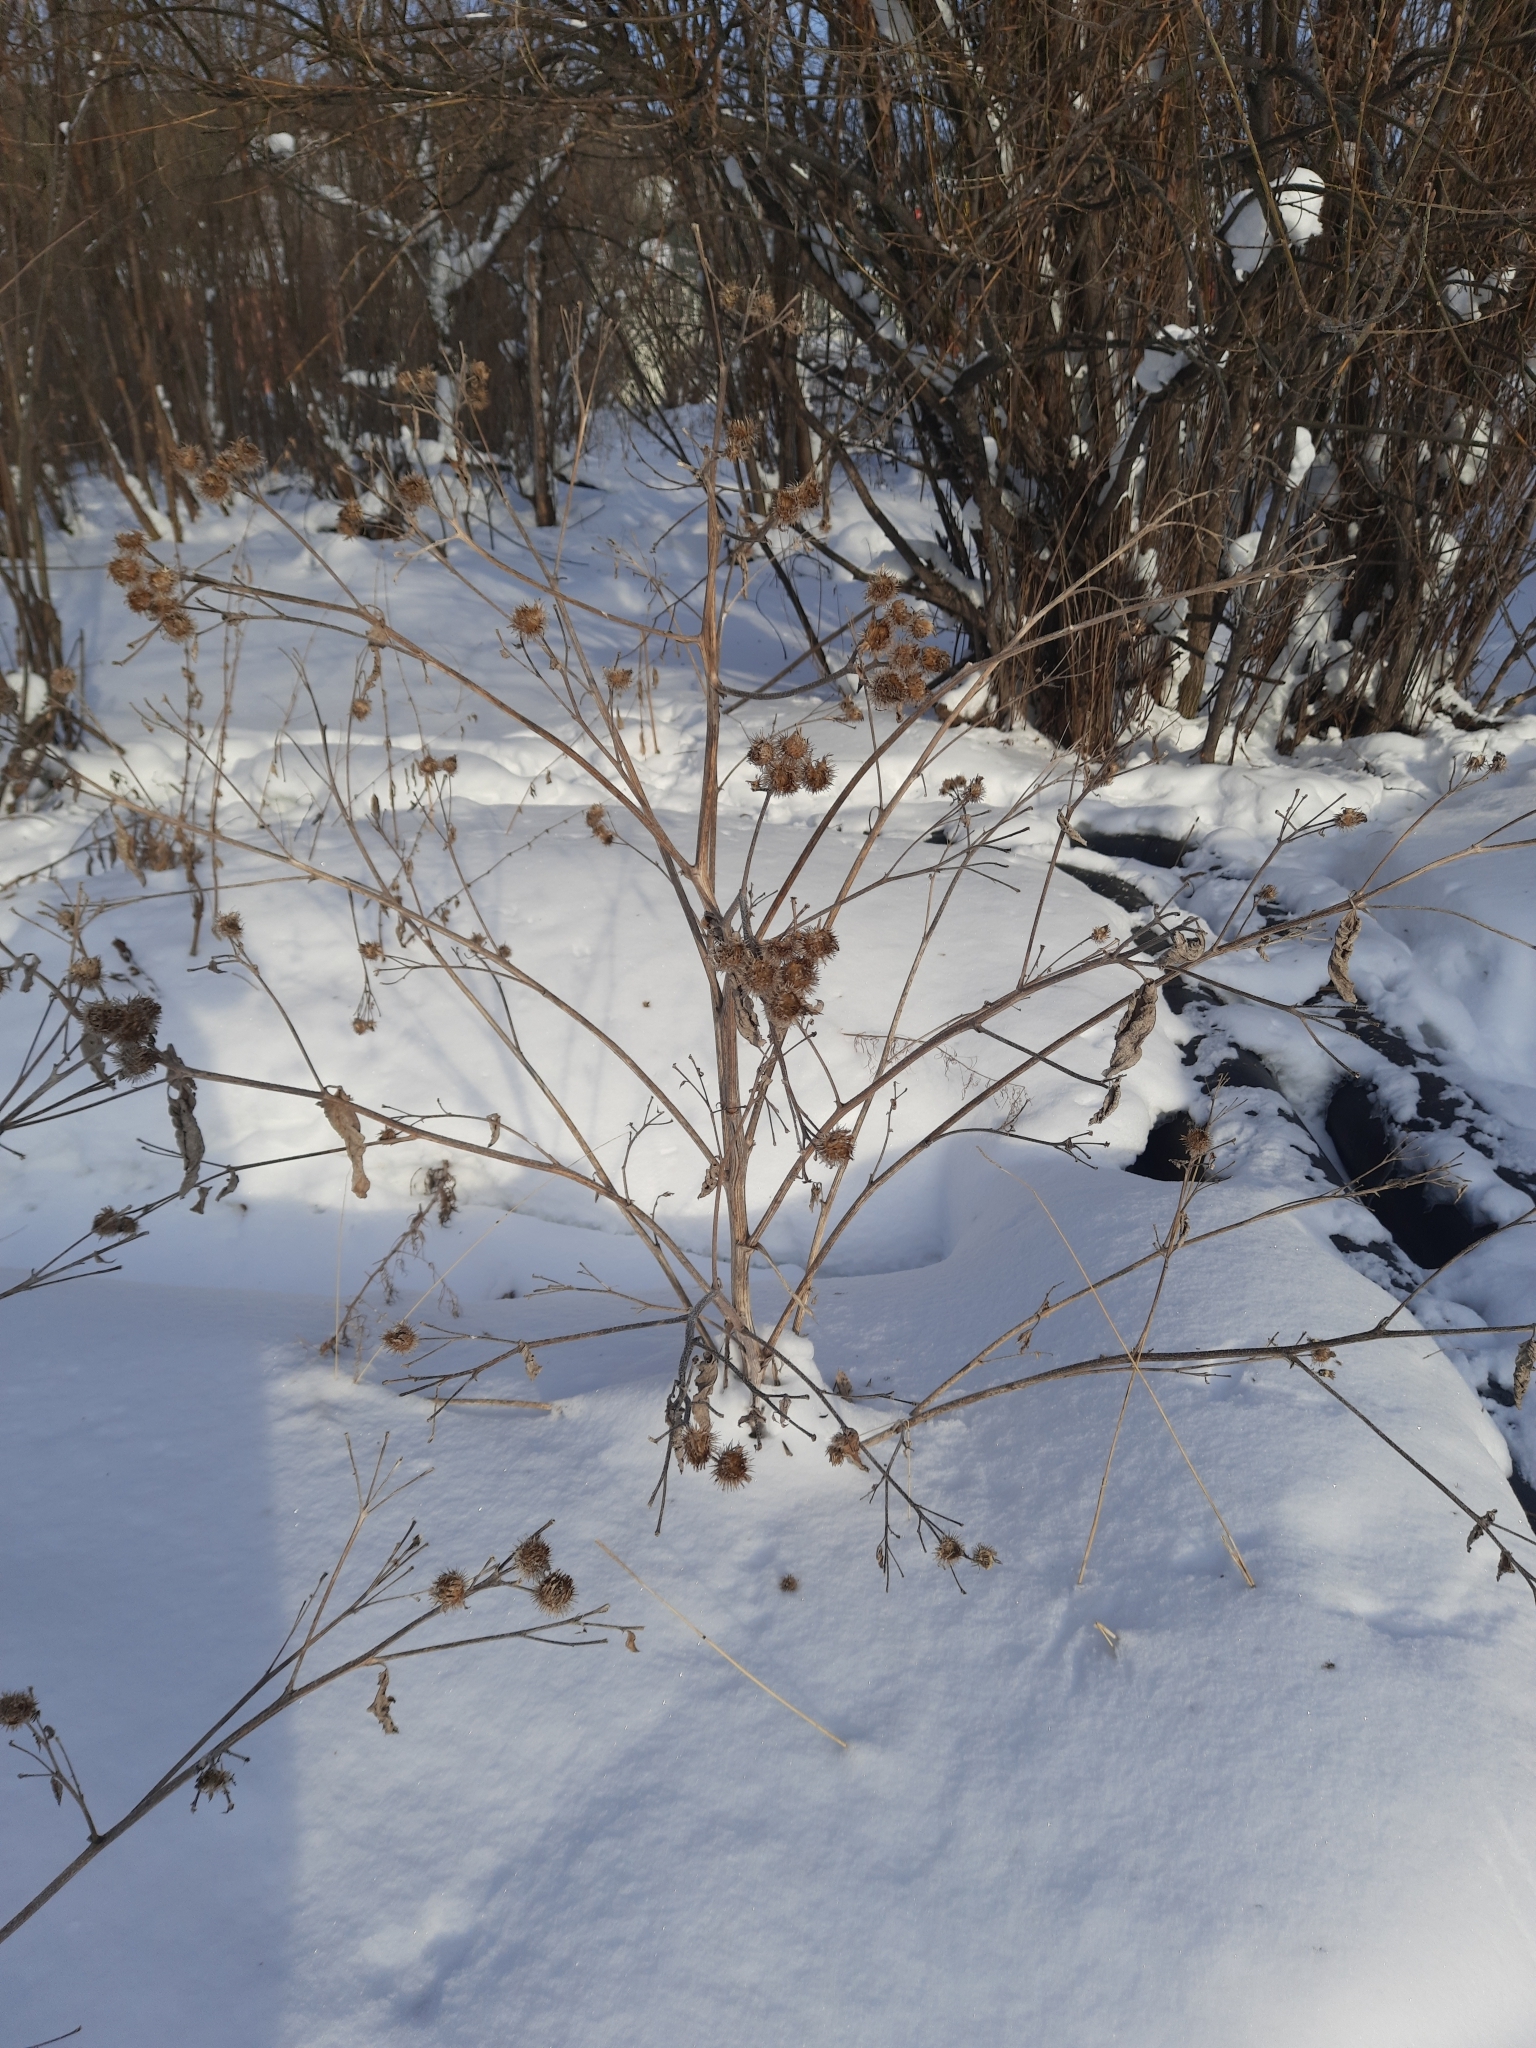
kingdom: Plantae
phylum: Tracheophyta
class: Magnoliopsida
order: Asterales
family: Asteraceae
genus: Arctium
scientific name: Arctium tomentosum
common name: Woolly burdock
